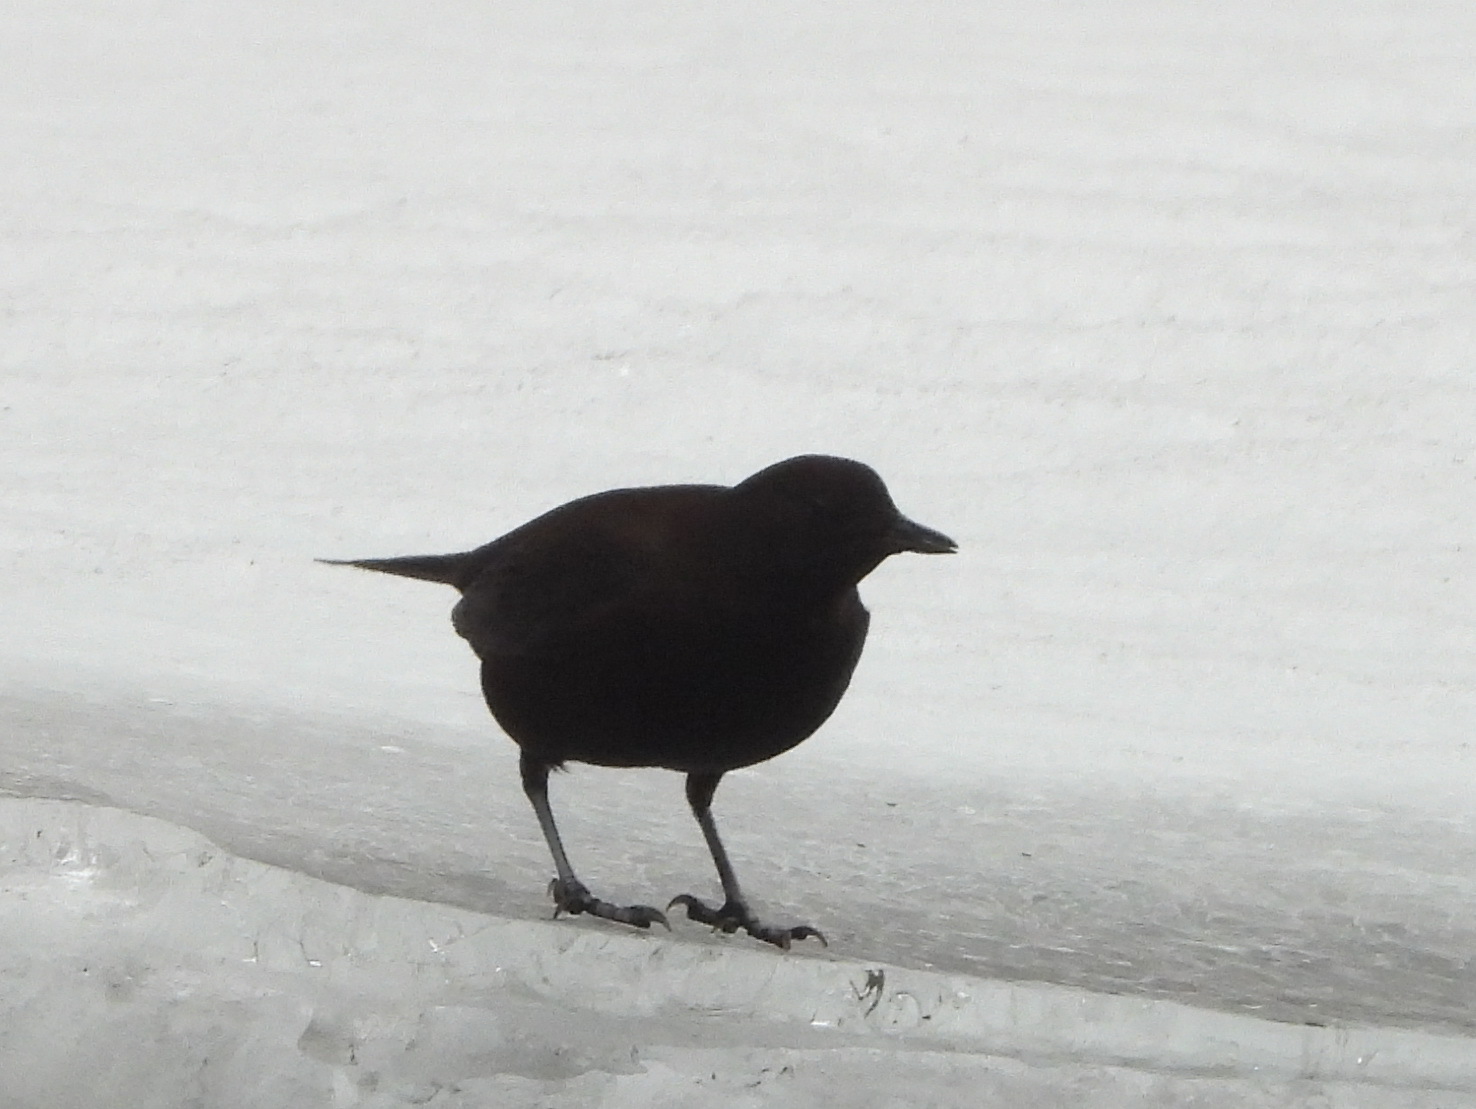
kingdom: Animalia
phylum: Chordata
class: Aves
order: Passeriformes
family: Cinclidae
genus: Cinclus
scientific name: Cinclus pallasii
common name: Brown dipper
